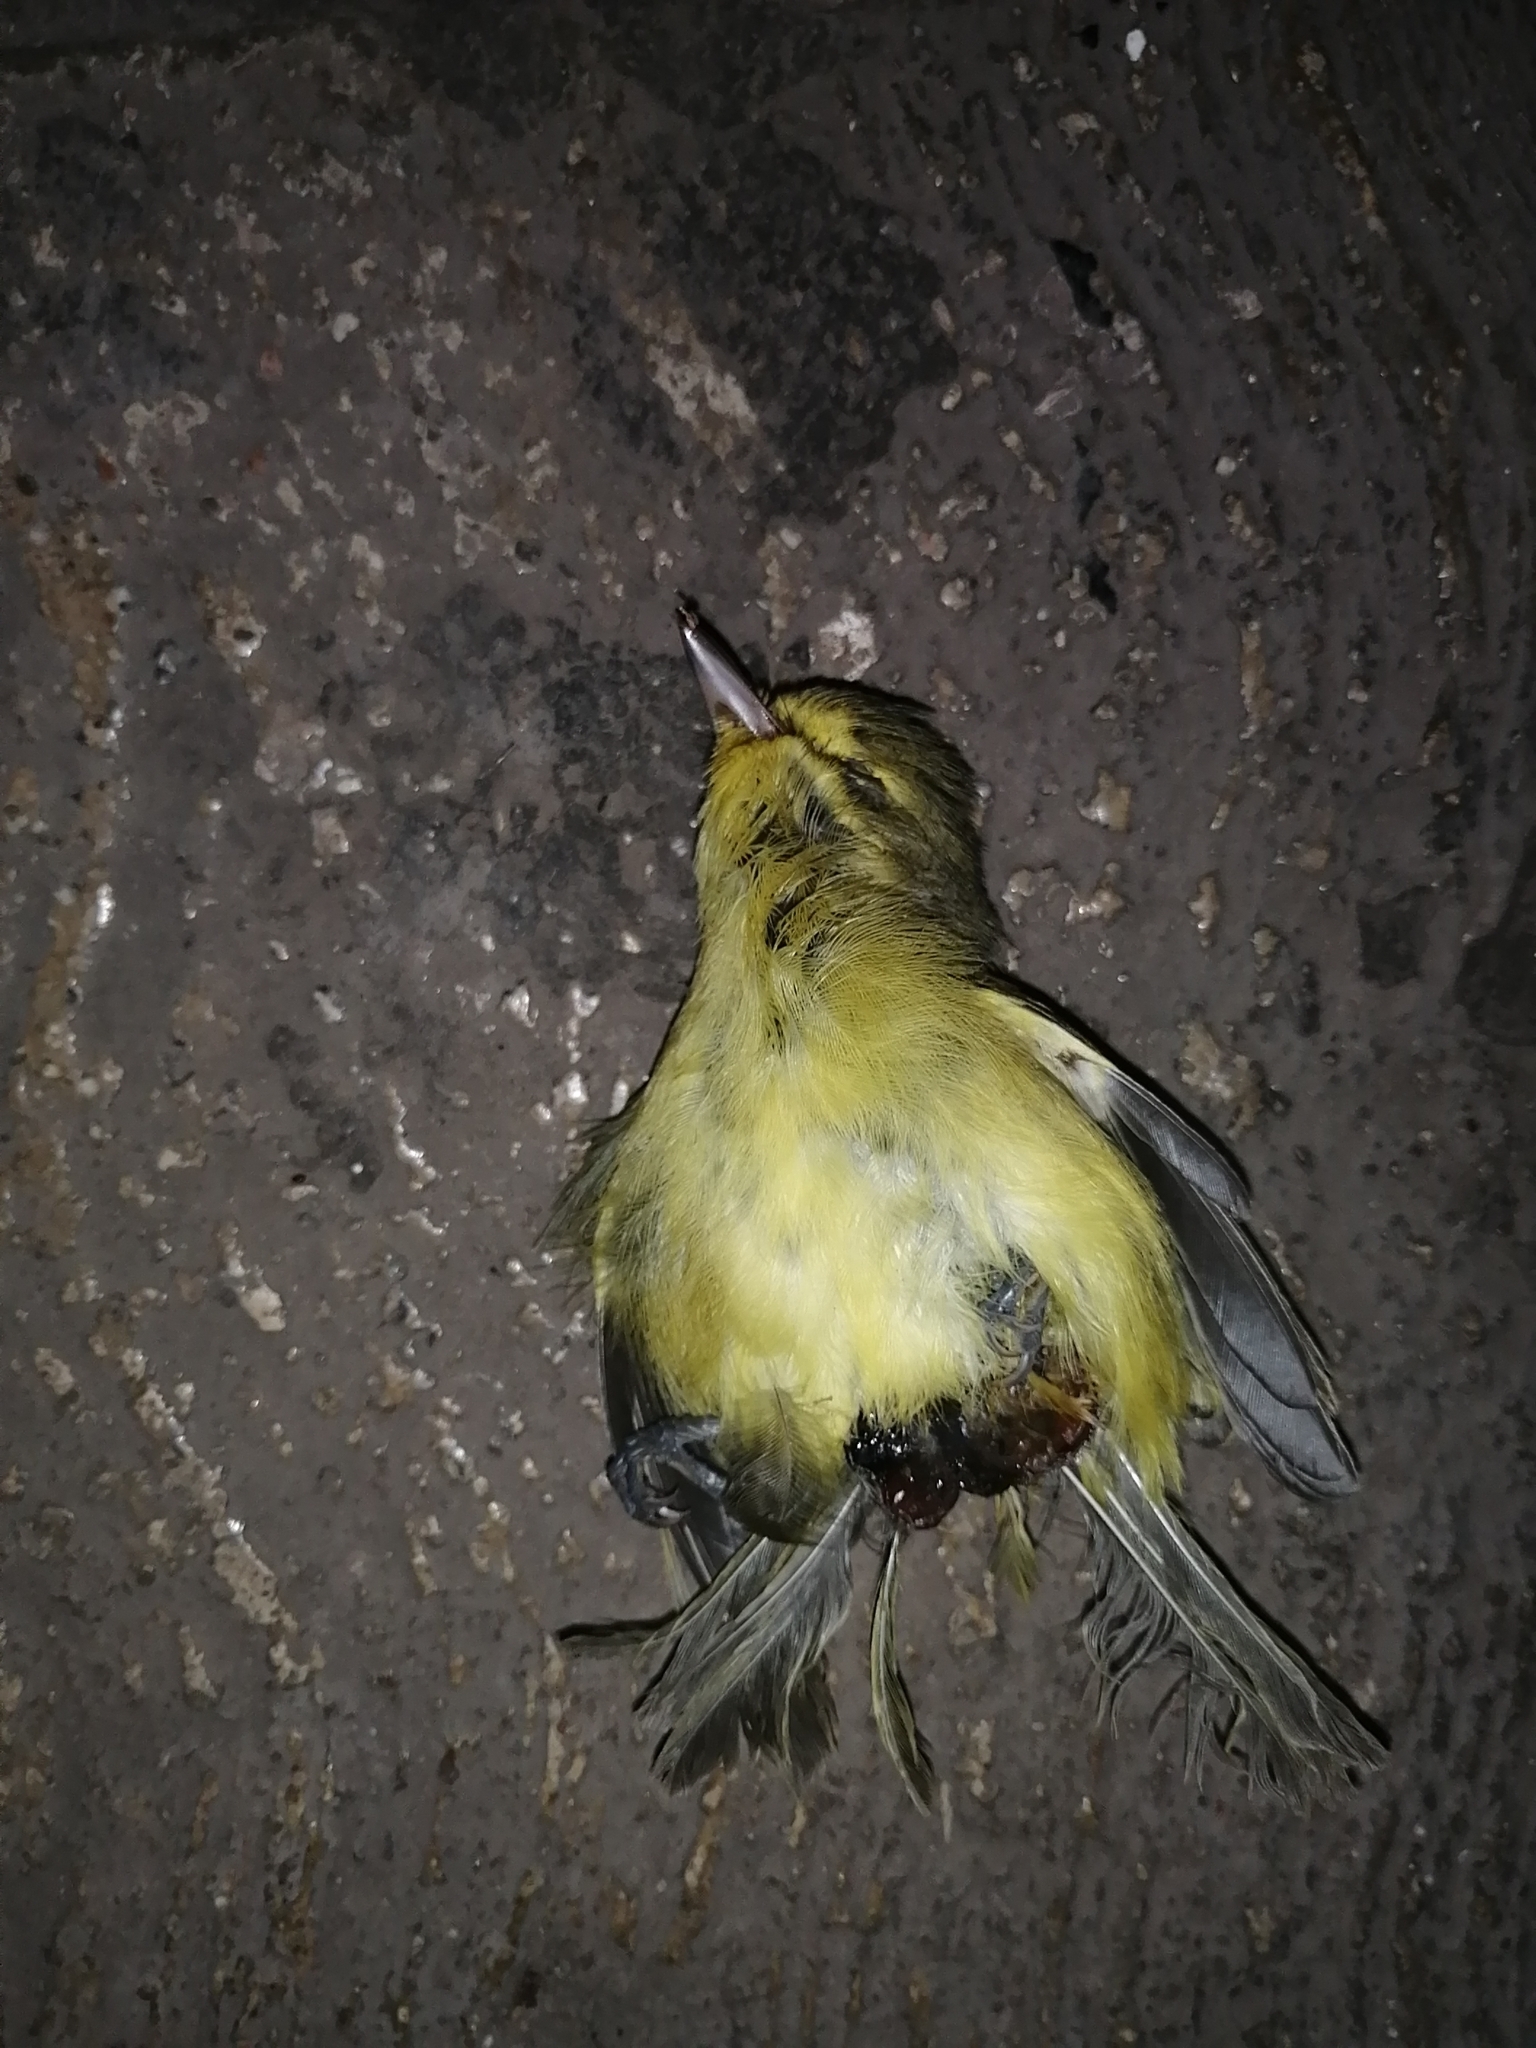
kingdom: Animalia
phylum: Chordata
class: Aves
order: Passeriformes
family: Vireonidae
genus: Vireo
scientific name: Vireo pallens
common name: Mangrove vireo
